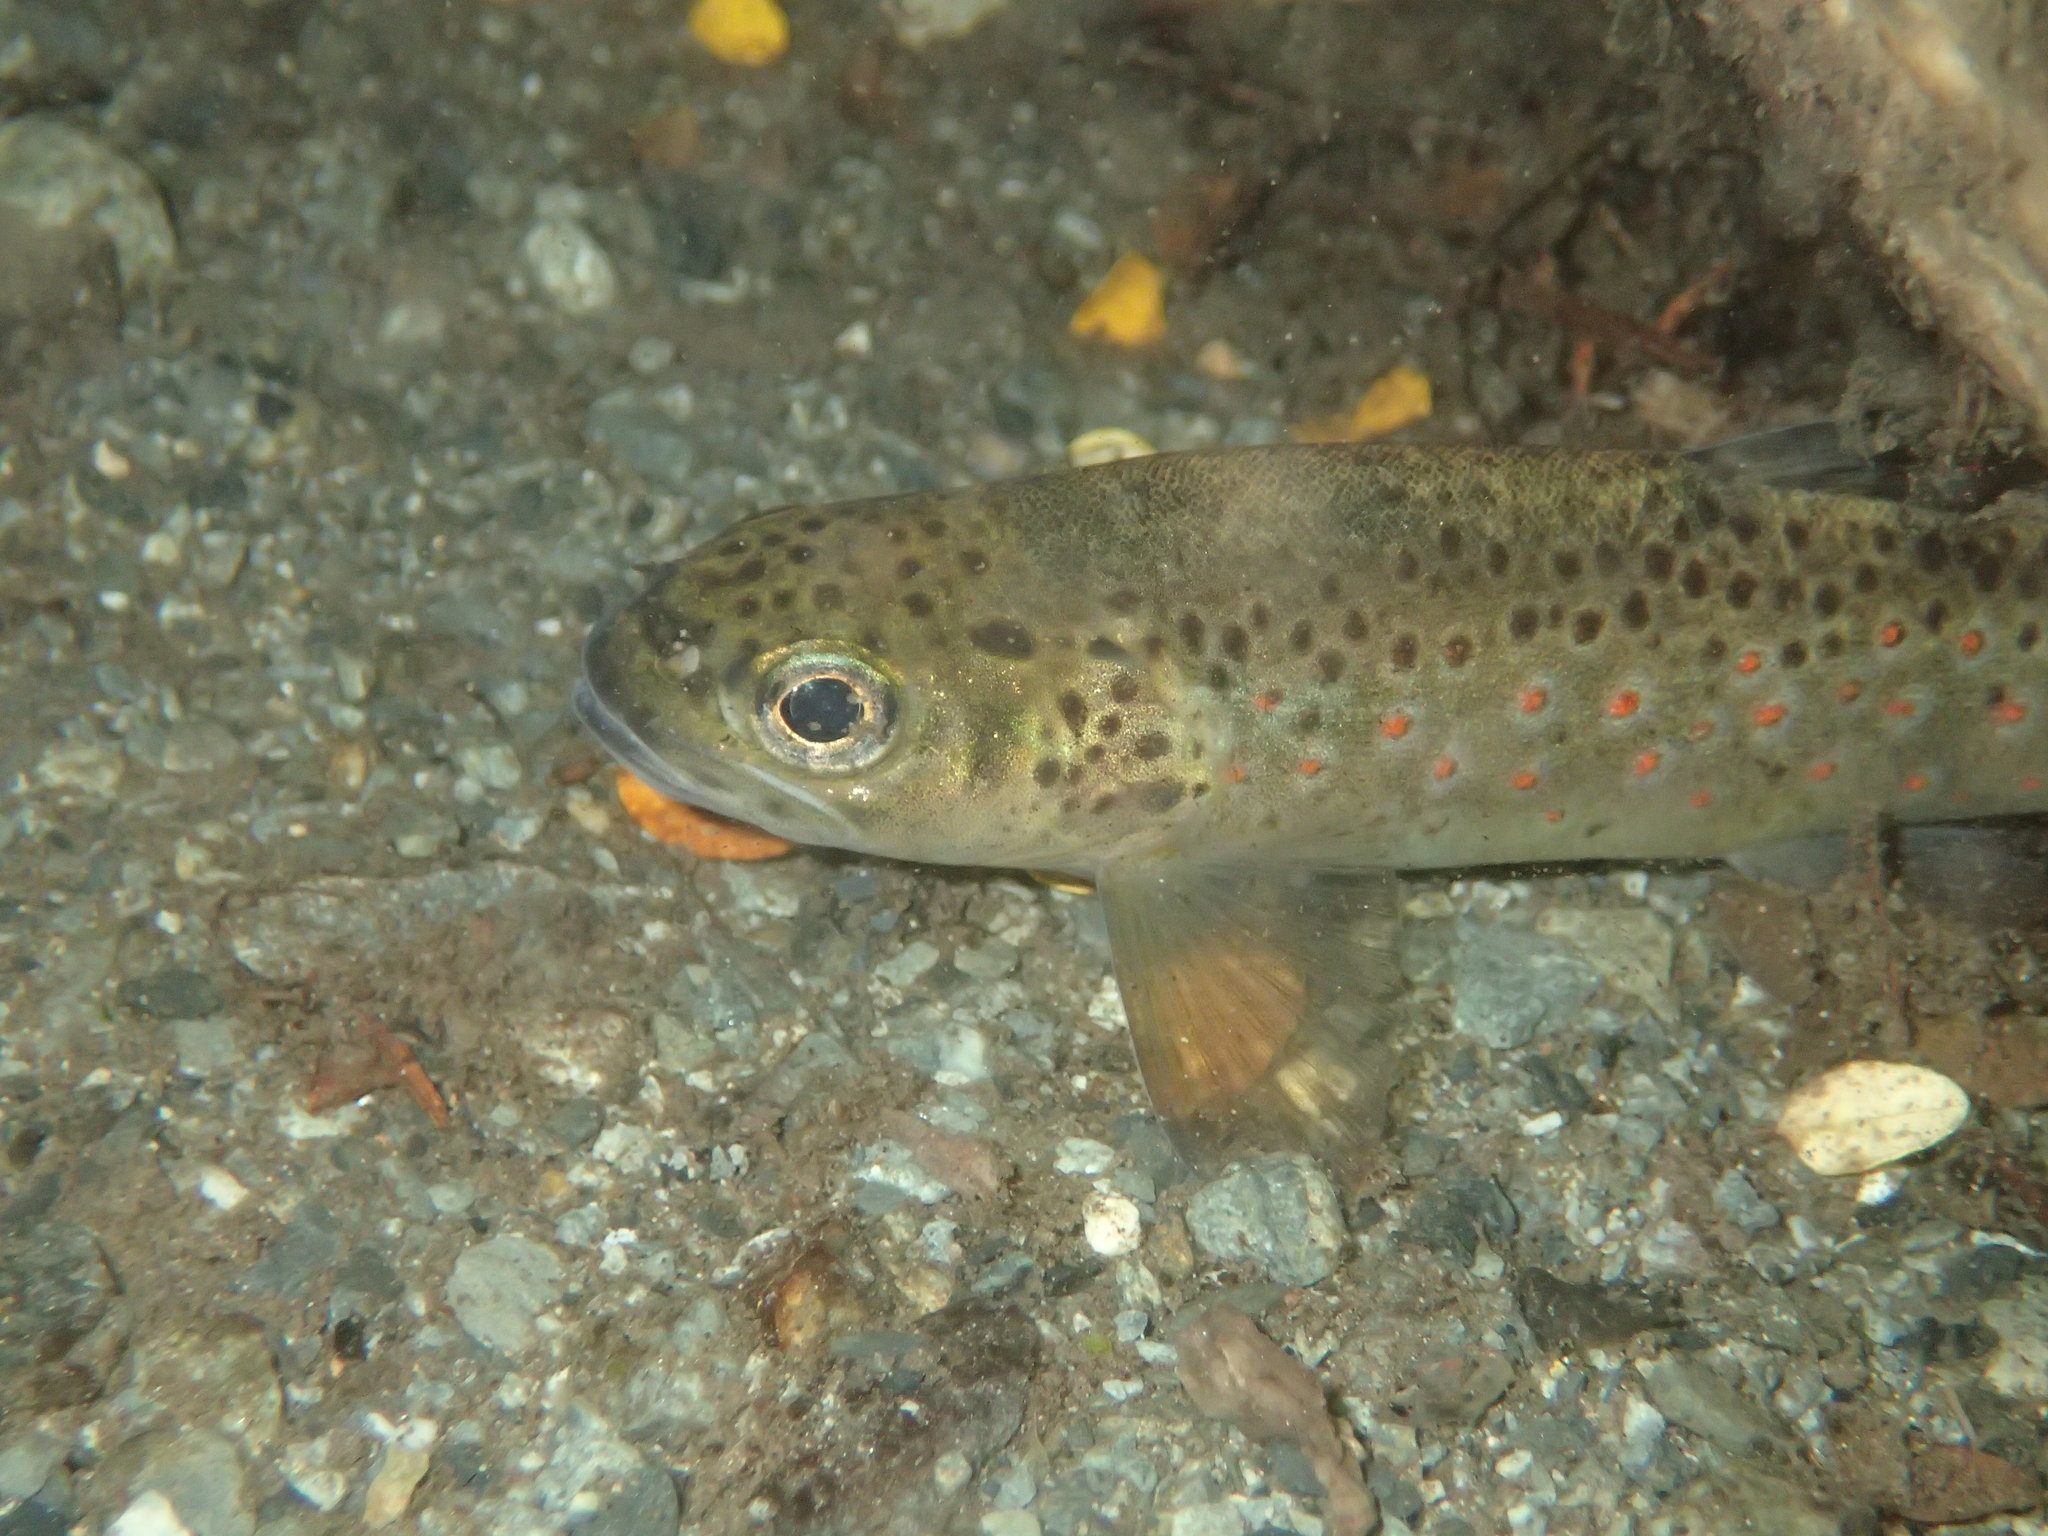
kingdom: Animalia
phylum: Chordata
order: Salmoniformes
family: Salmonidae
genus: Salmo
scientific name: Salmo trutta
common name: Brown trout
